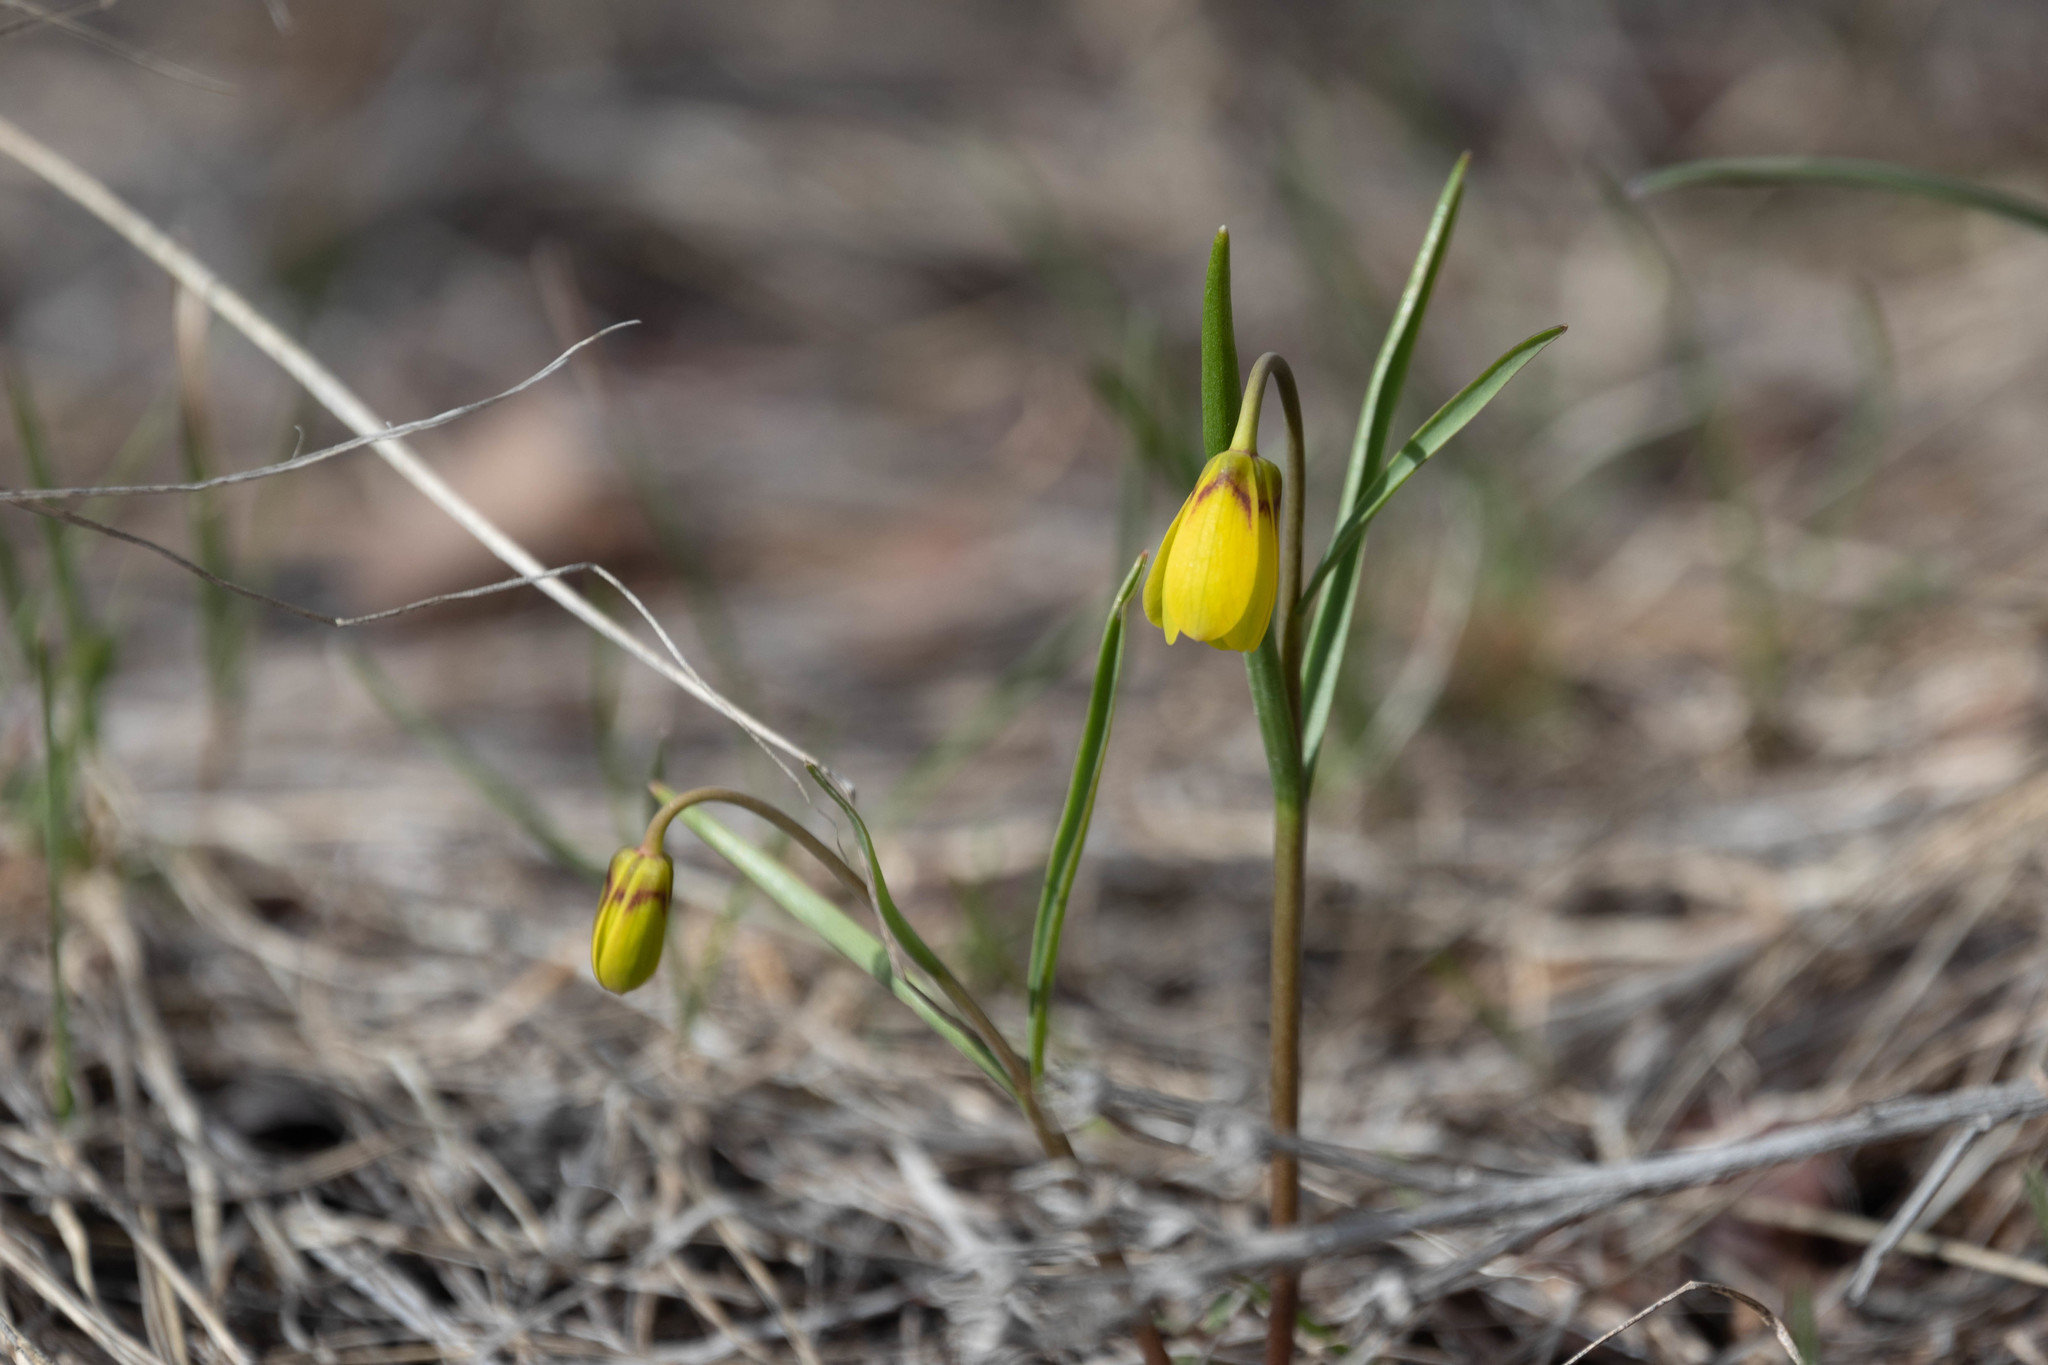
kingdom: Plantae
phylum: Tracheophyta
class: Liliopsida
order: Liliales
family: Liliaceae
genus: Fritillaria
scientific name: Fritillaria pudica
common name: Yellow fritillary
